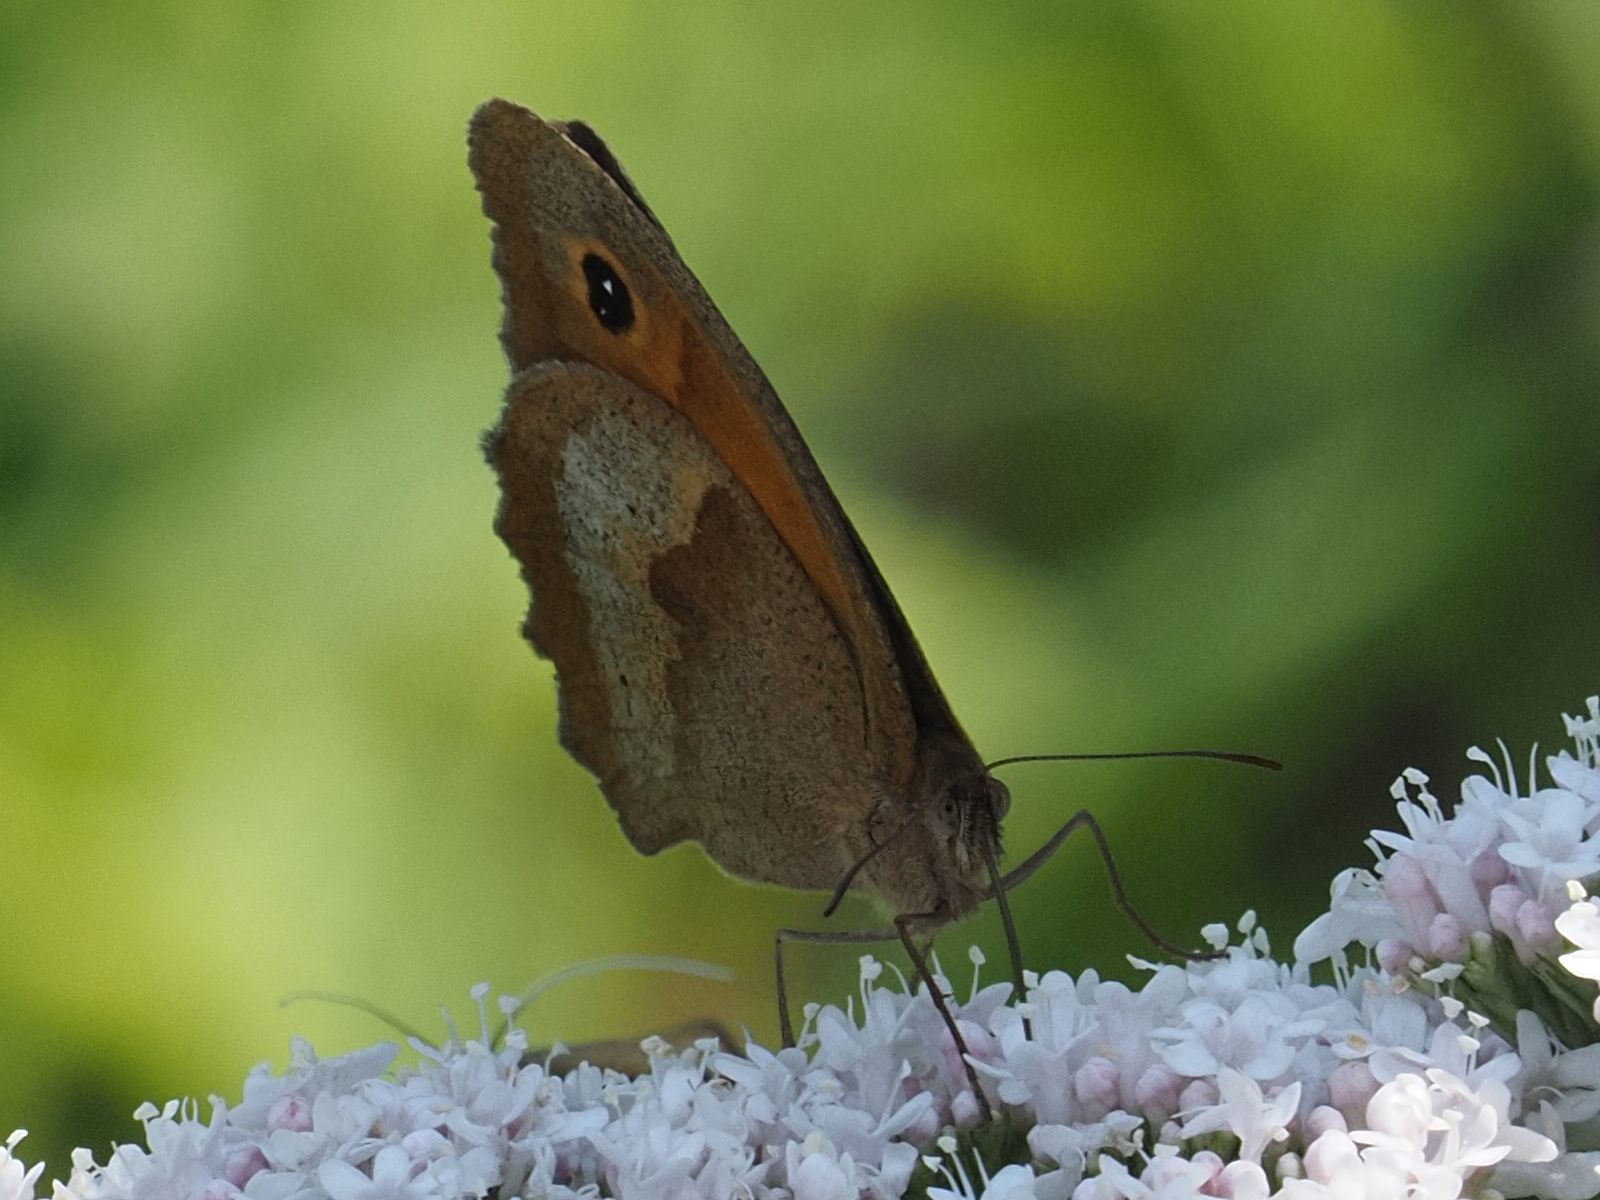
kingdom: Animalia
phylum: Arthropoda
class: Insecta
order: Lepidoptera
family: Nymphalidae
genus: Maniola
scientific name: Maniola jurtina
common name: Meadow brown
